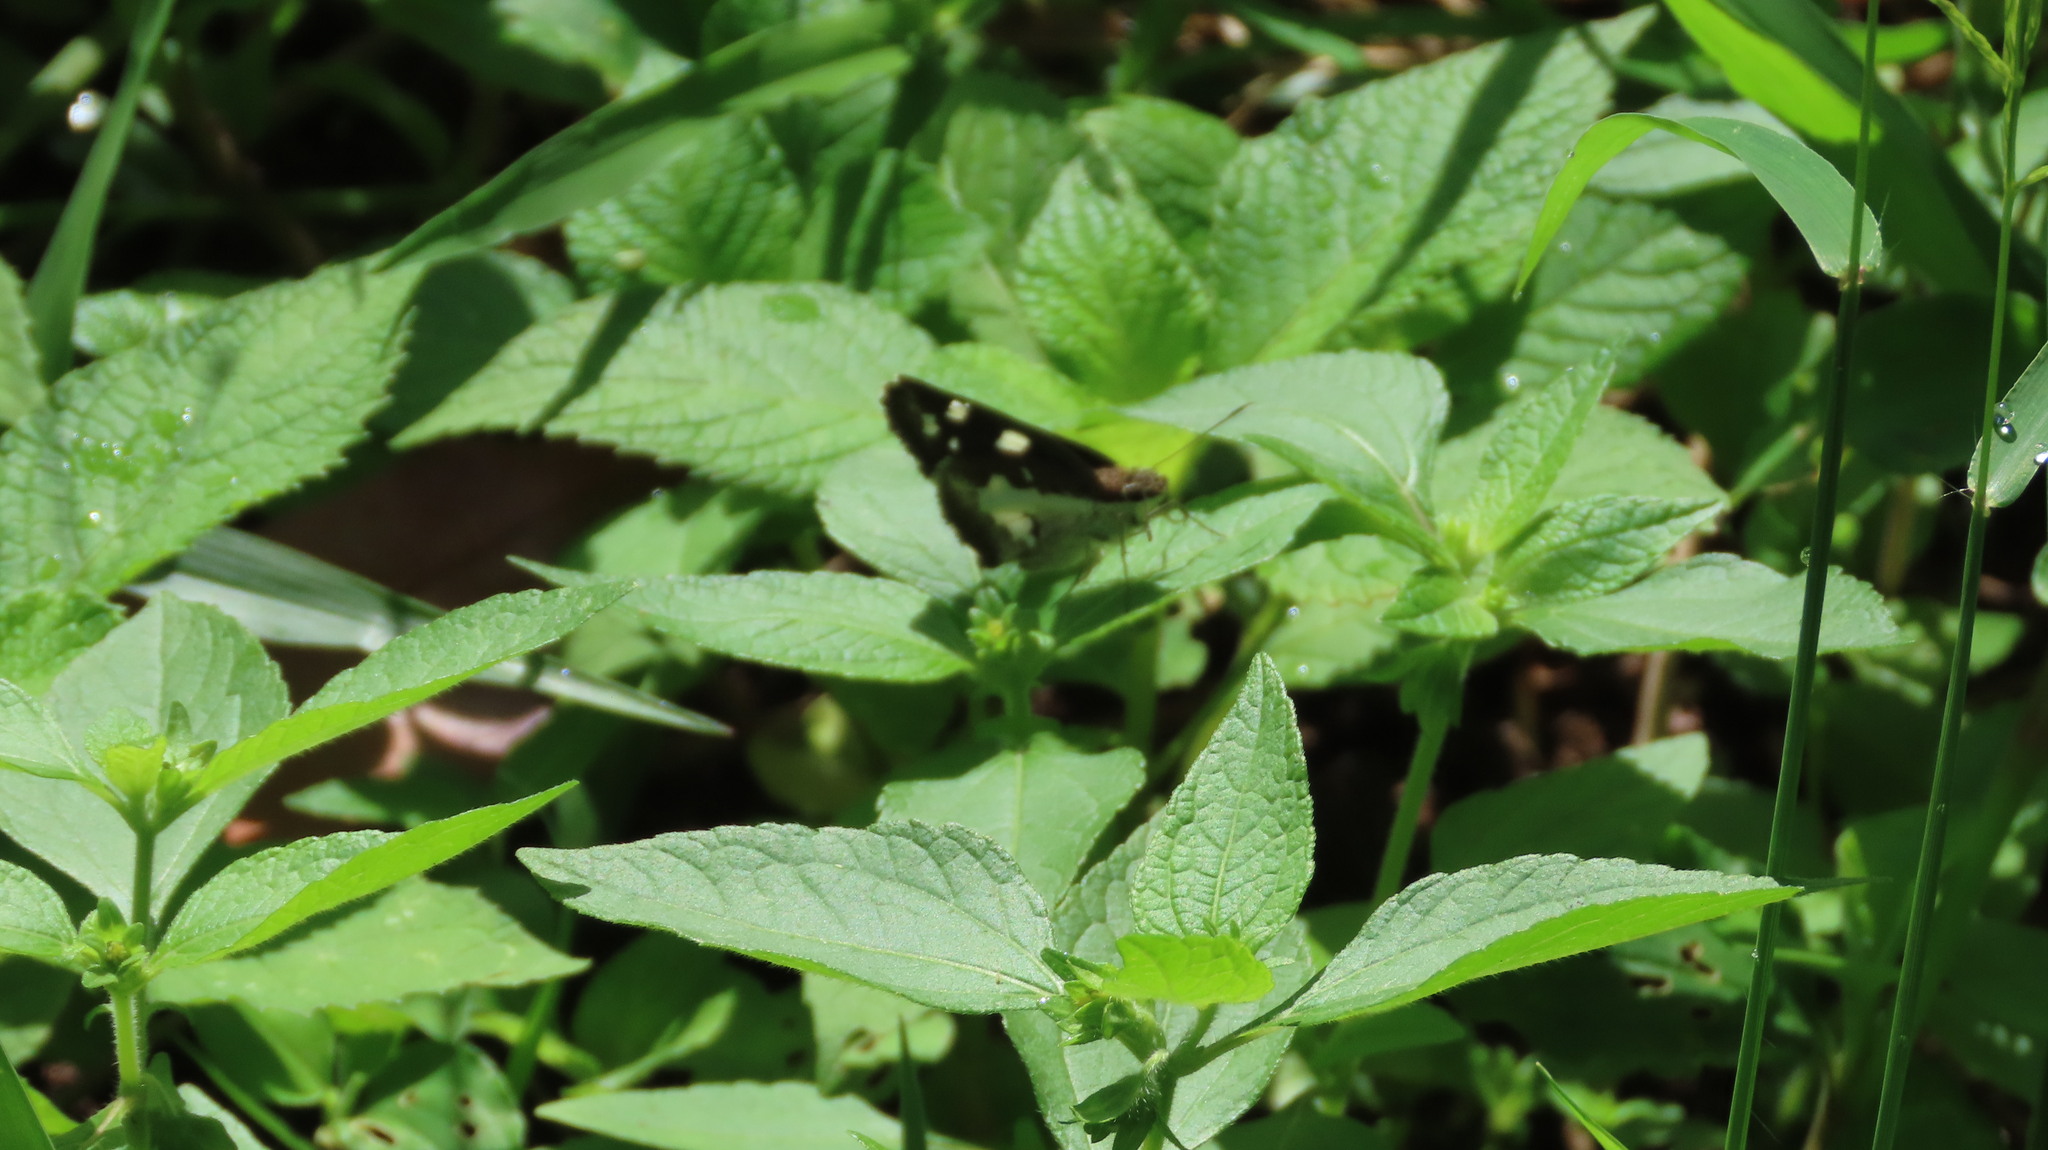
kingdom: Animalia
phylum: Arthropoda
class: Insecta
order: Lepidoptera
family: Hesperiidae
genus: Udaspes
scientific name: Udaspes folus
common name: Grass demon
